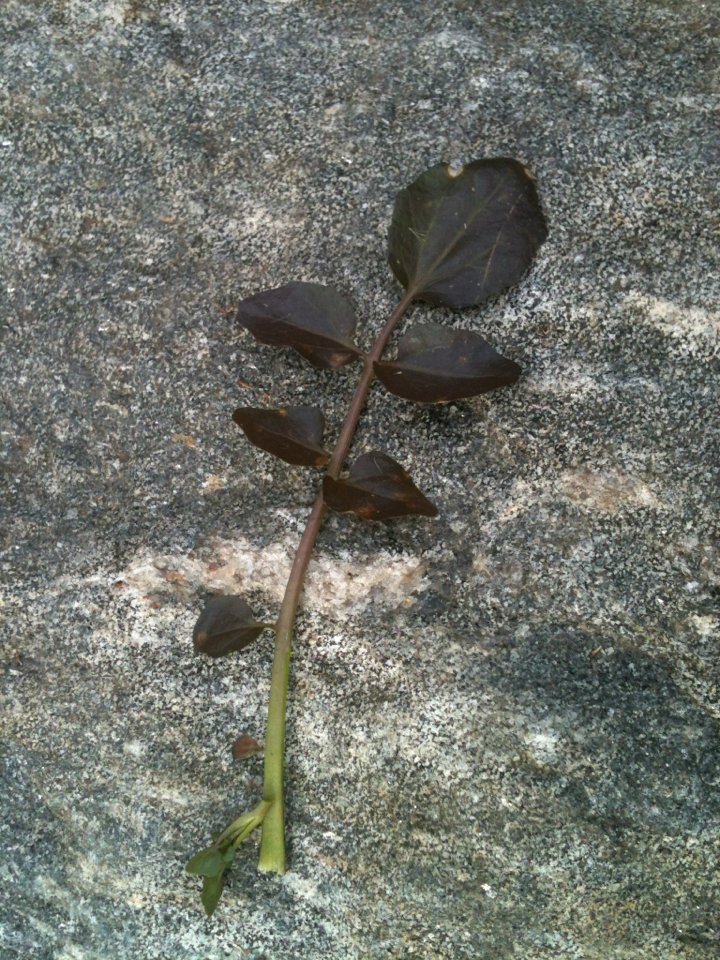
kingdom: Plantae
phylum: Tracheophyta
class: Magnoliopsida
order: Brassicales
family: Brassicaceae
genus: Nasturtium
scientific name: Nasturtium officinale
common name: Watercress
